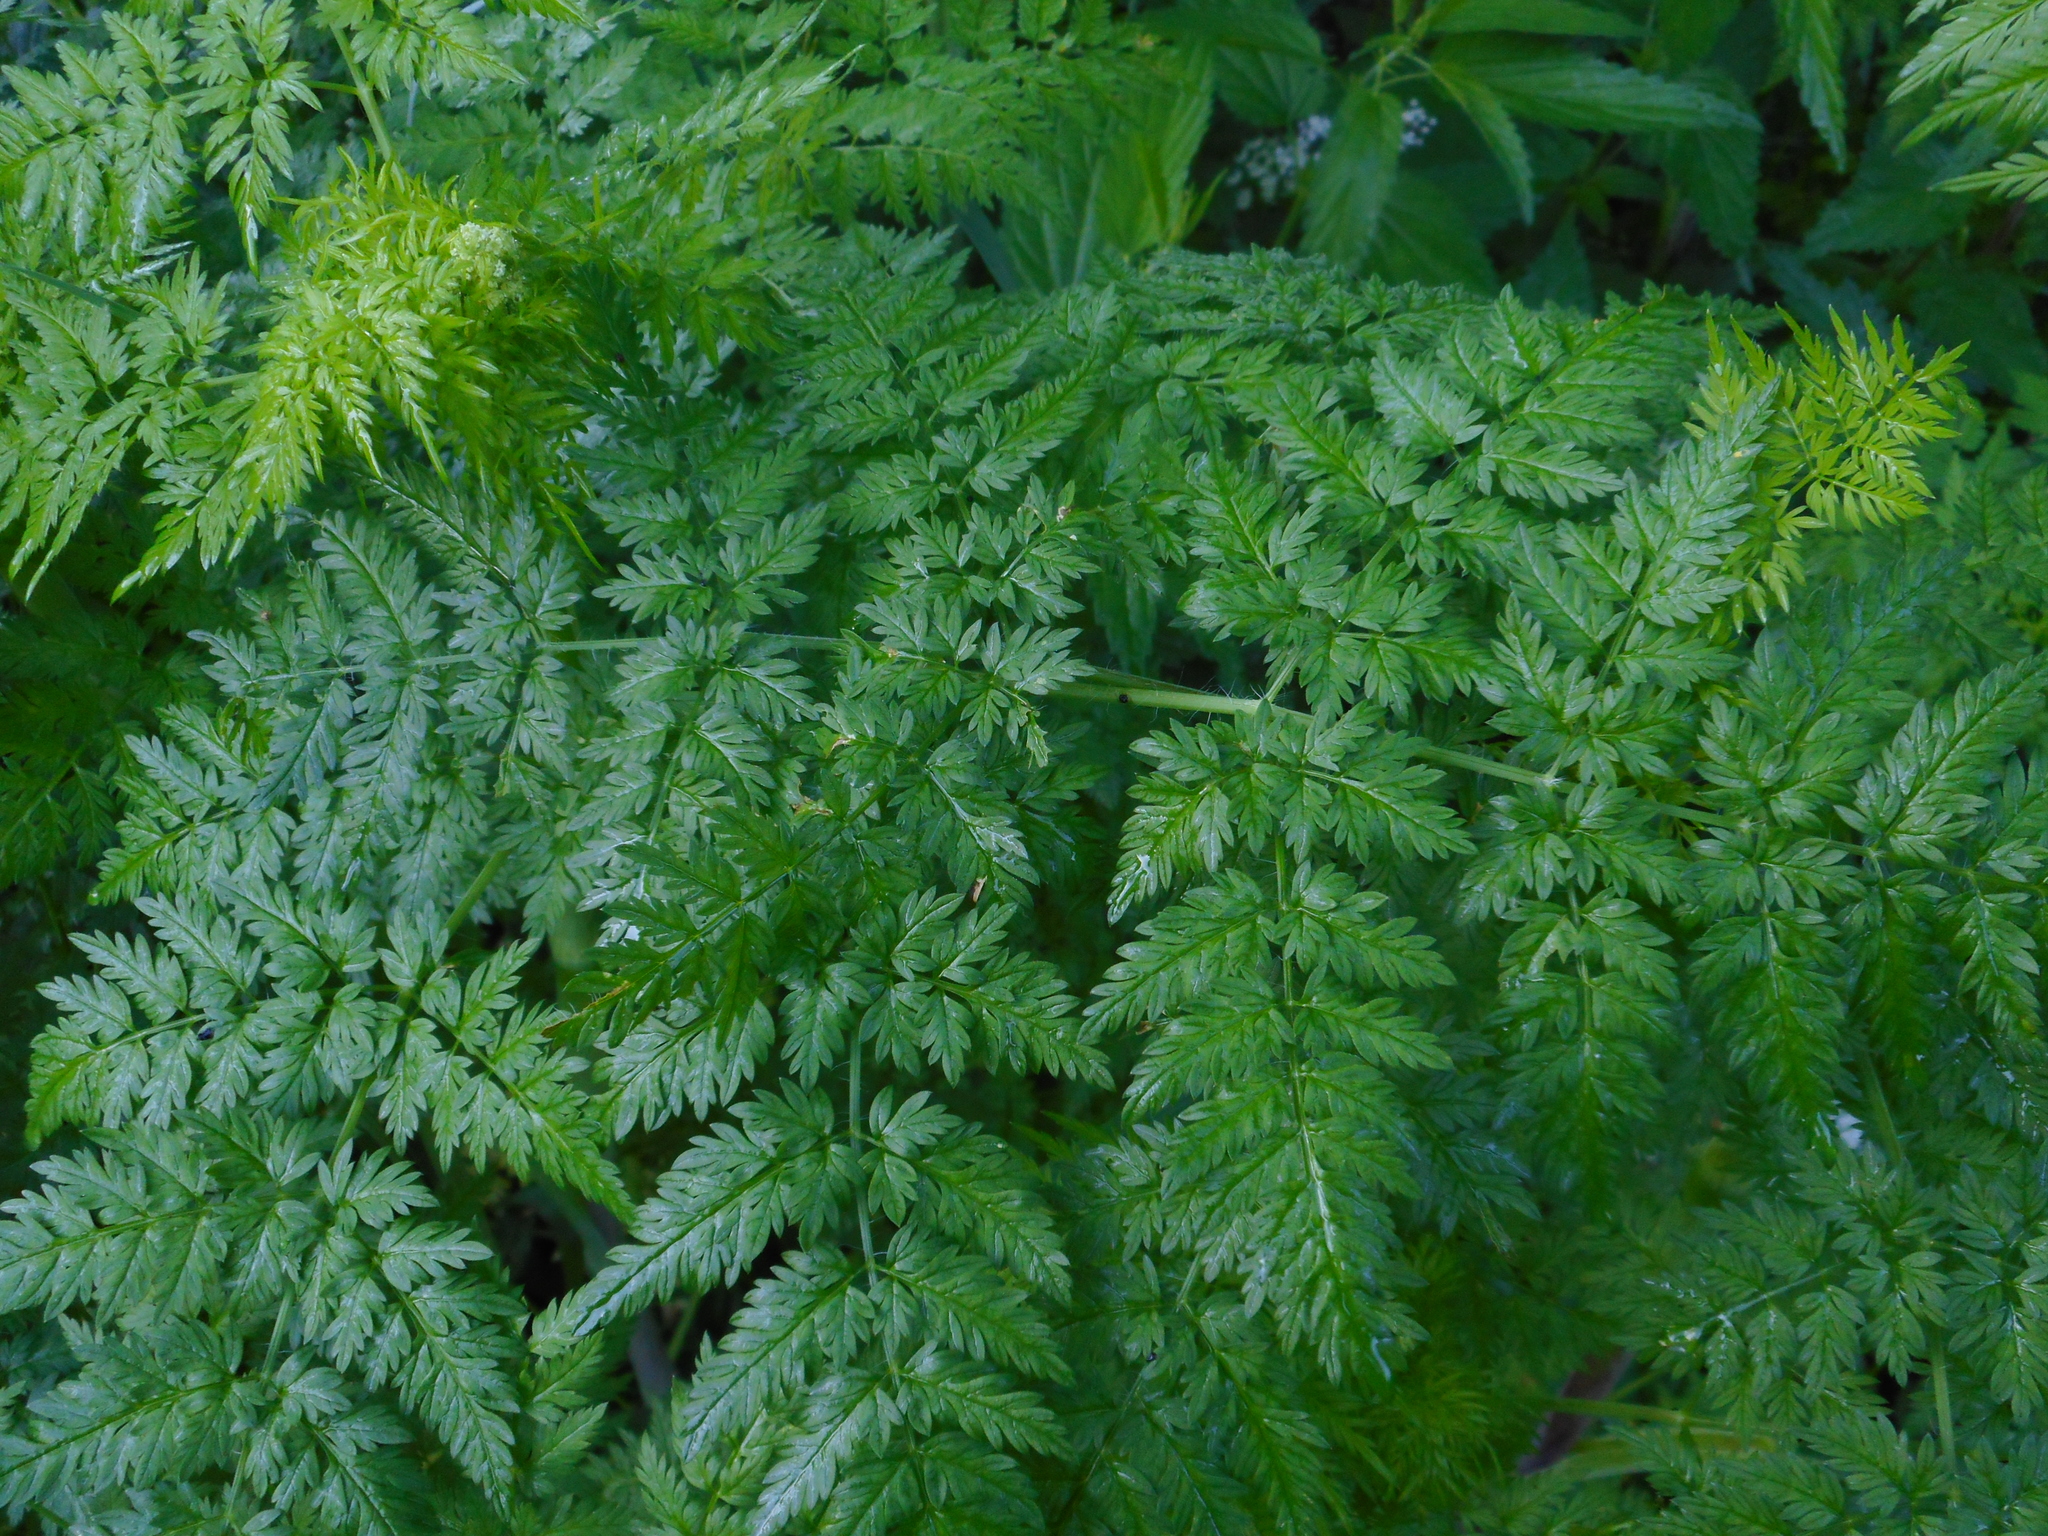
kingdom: Plantae
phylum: Tracheophyta
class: Magnoliopsida
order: Apiales
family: Apiaceae
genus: Conium
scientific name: Conium maculatum
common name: Hemlock
